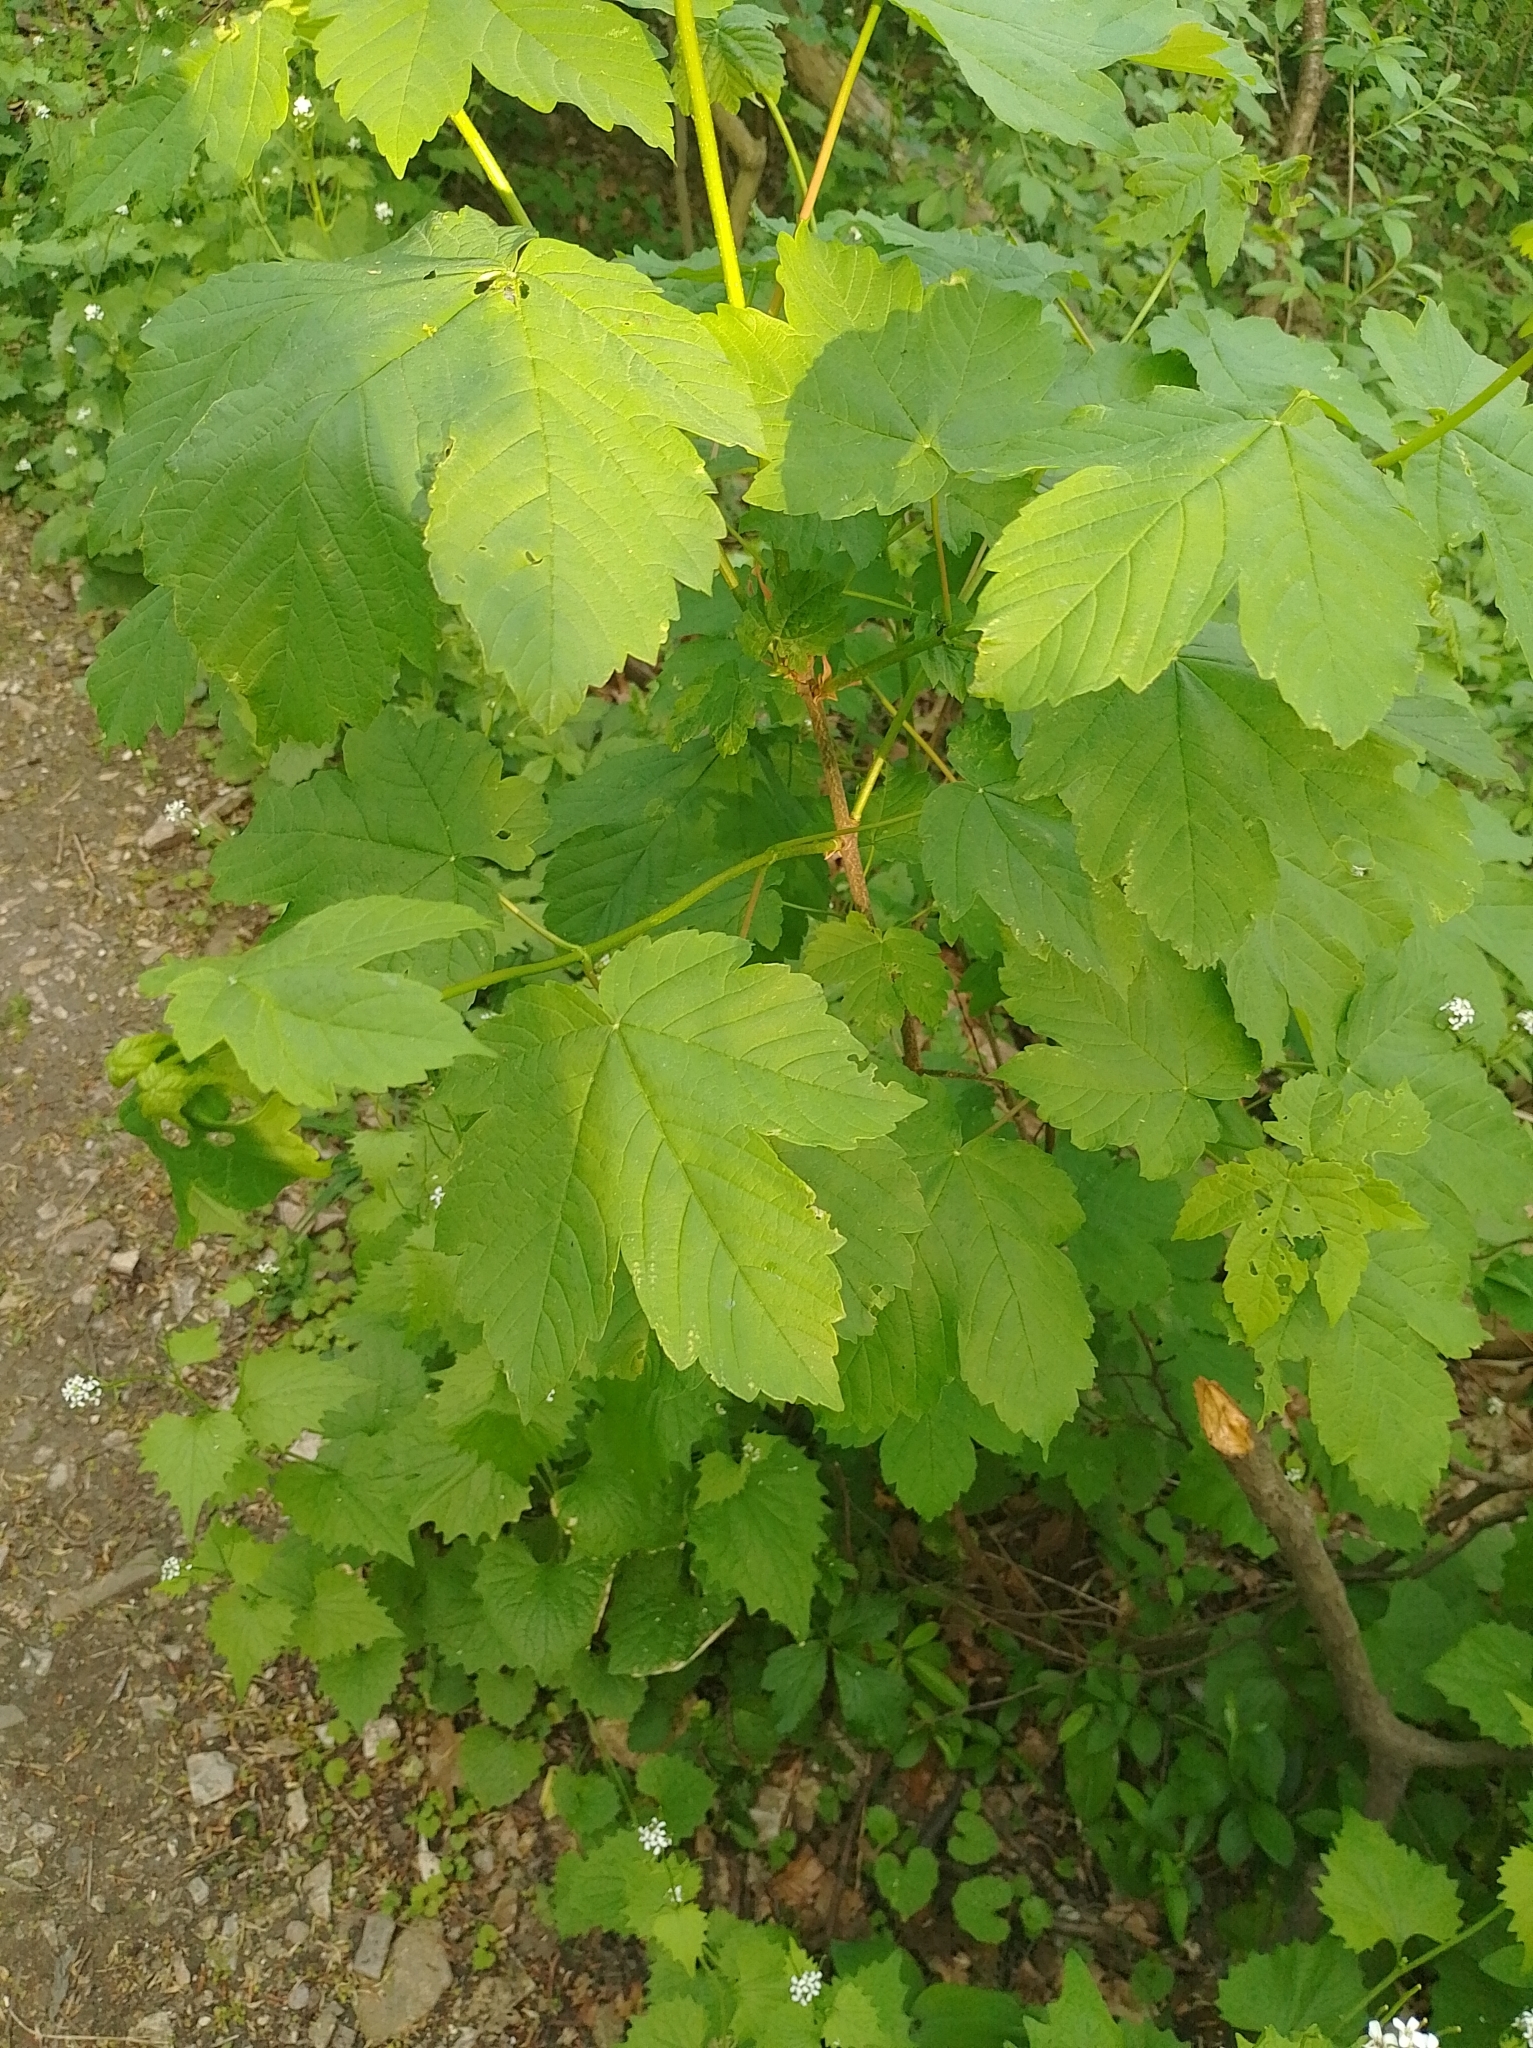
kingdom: Plantae
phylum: Tracheophyta
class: Magnoliopsida
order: Sapindales
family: Sapindaceae
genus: Acer
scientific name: Acer pseudoplatanus
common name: Sycamore
